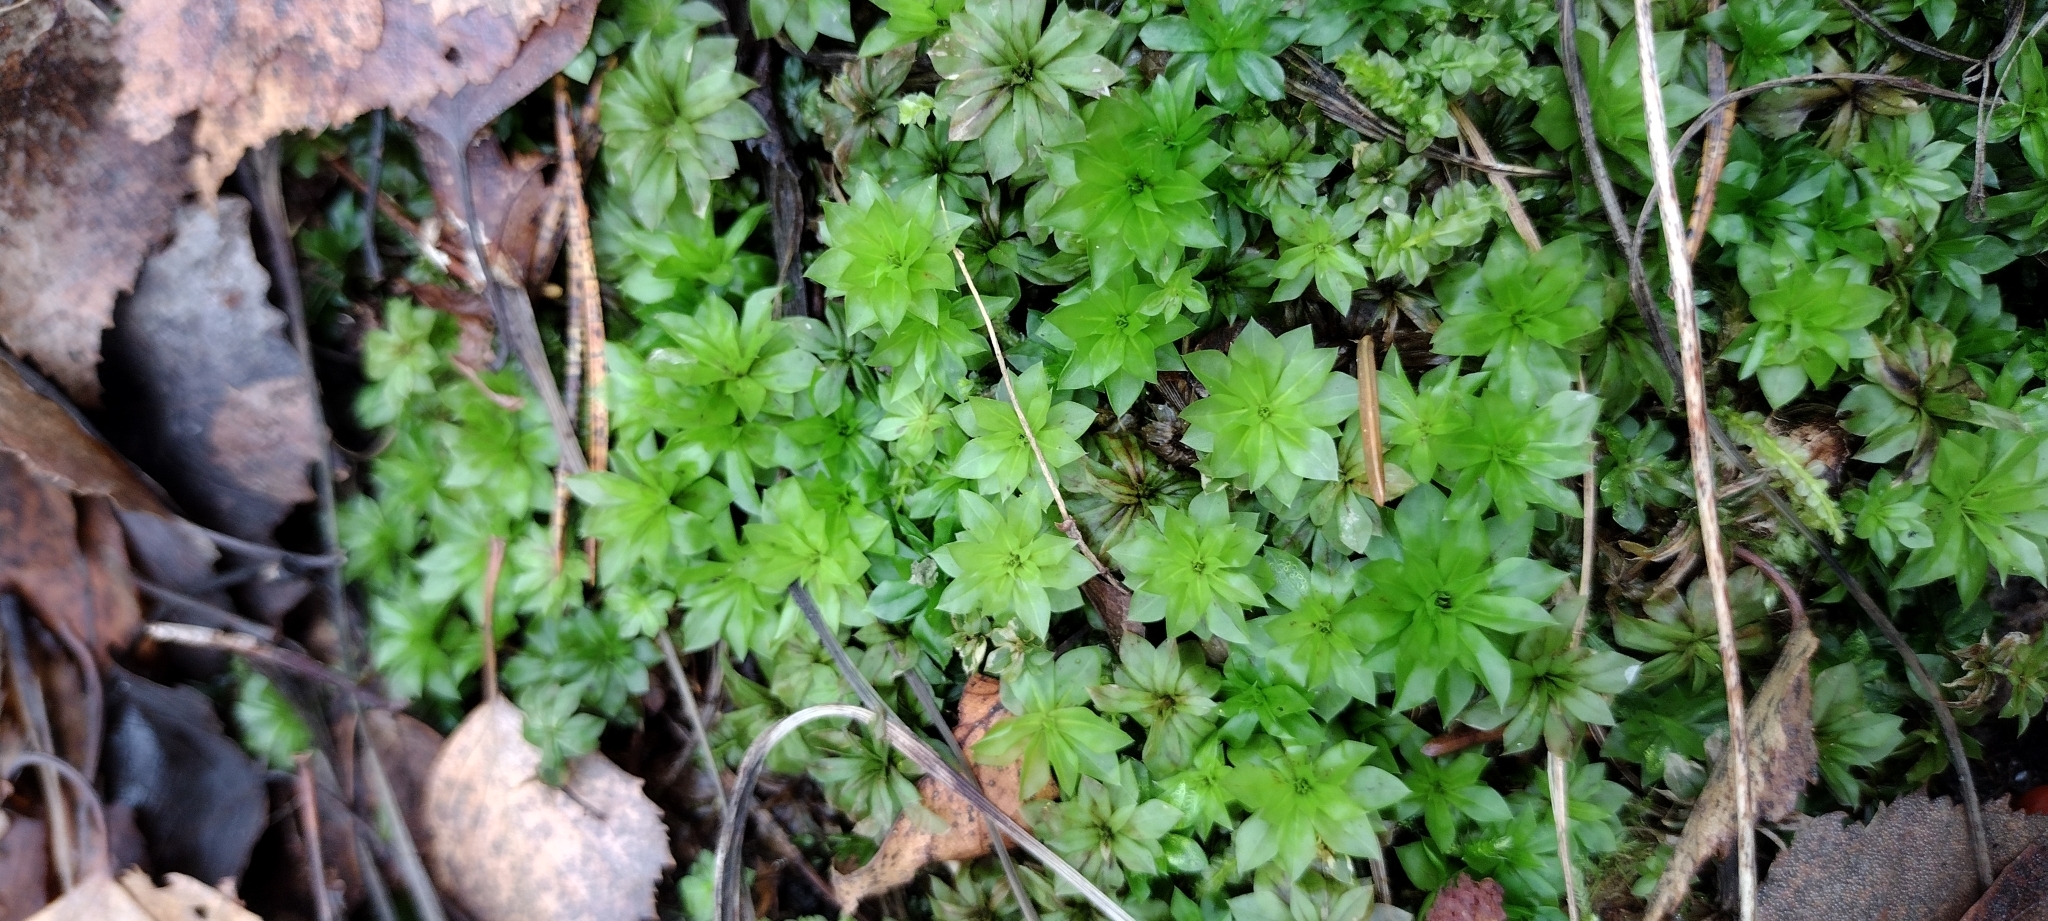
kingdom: Plantae
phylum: Bryophyta
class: Bryopsida
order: Bryales
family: Bryaceae
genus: Rhodobryum
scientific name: Rhodobryum roseum
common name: Rose-moss
